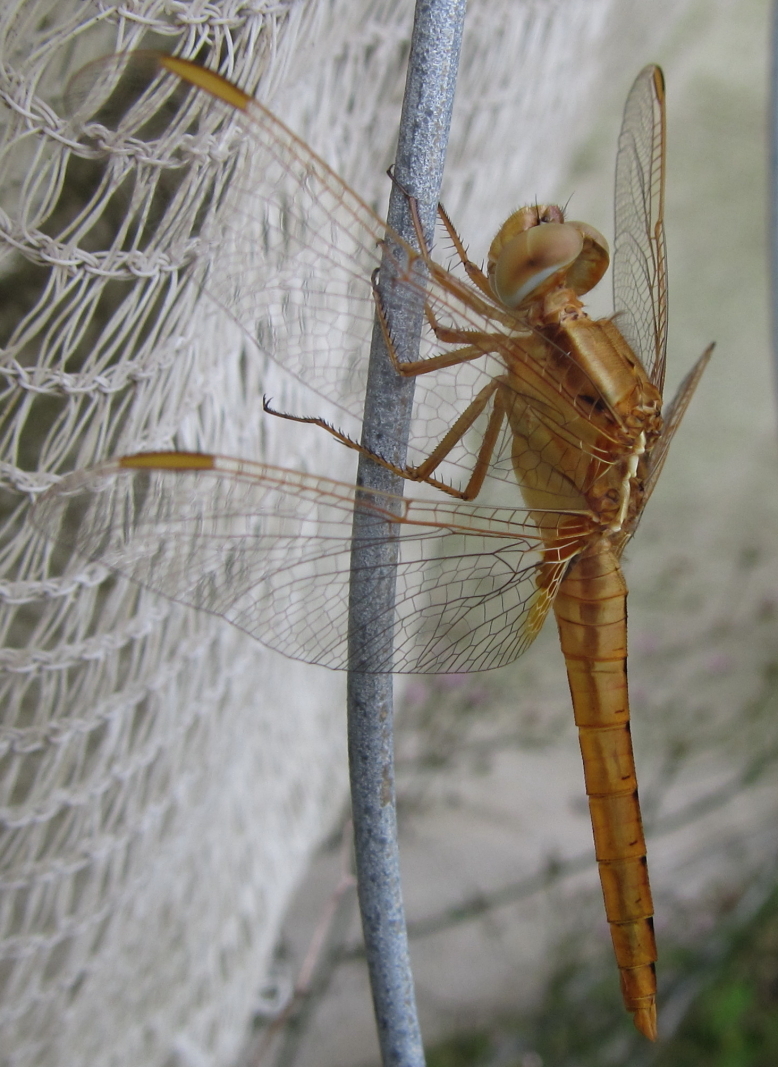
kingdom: Animalia
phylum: Arthropoda
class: Insecta
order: Odonata
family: Libellulidae
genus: Crocothemis
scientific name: Crocothemis erythraea
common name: Scarlet dragonfly
